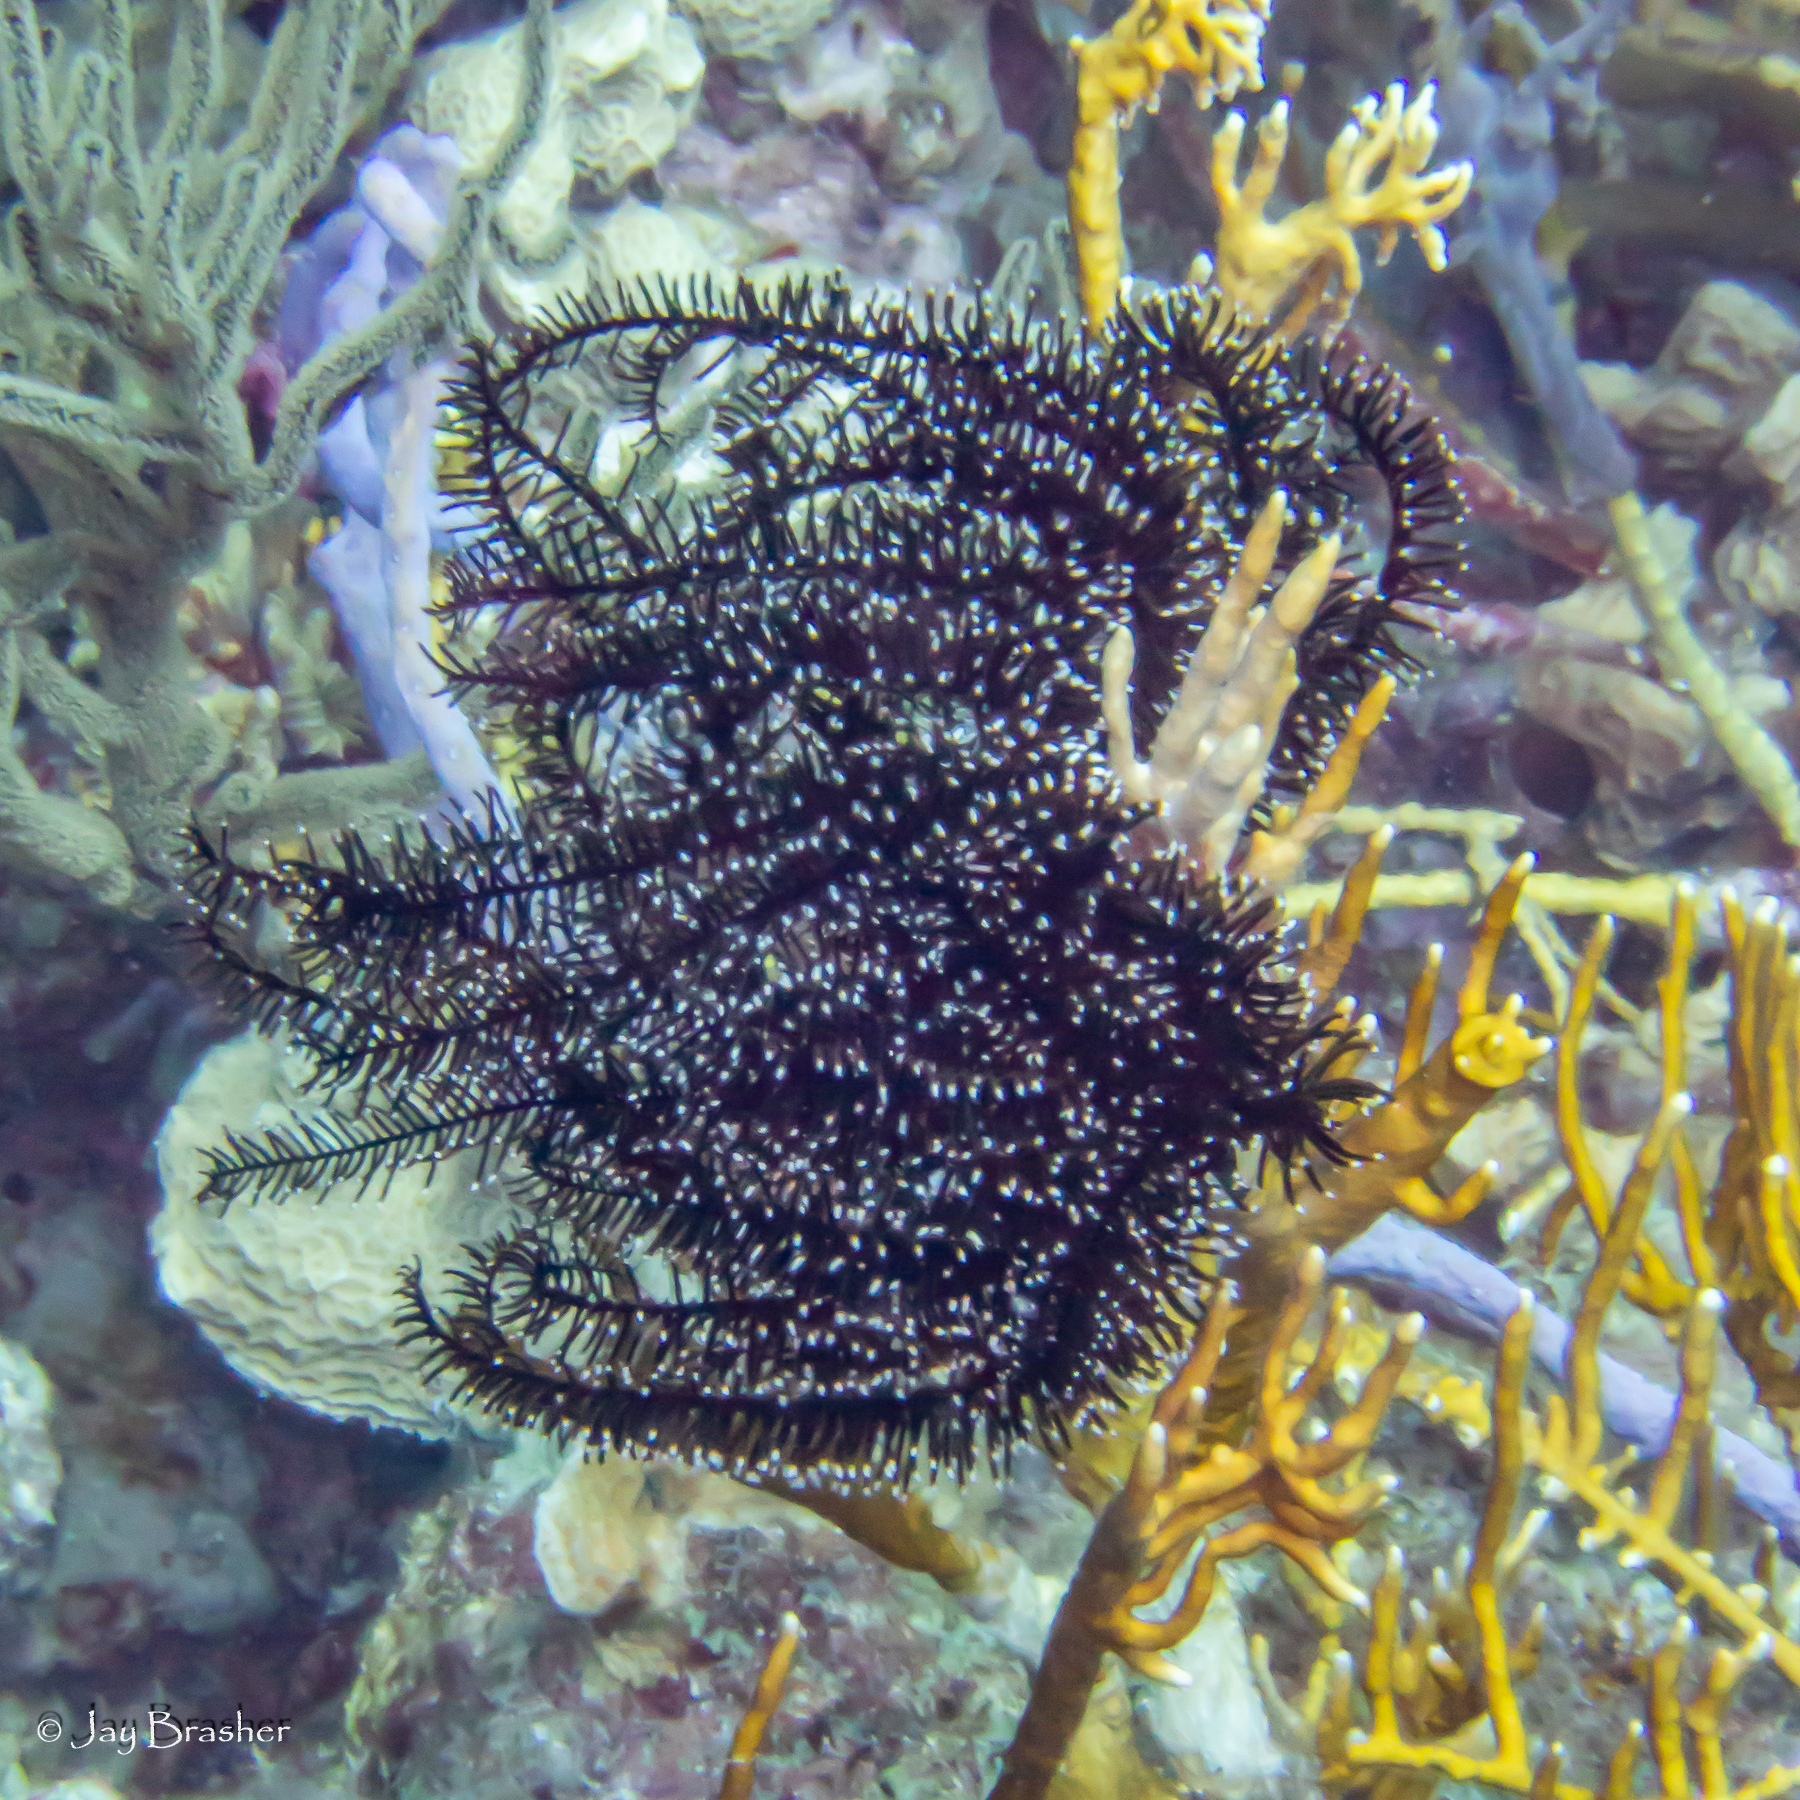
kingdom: Animalia
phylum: Echinodermata
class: Crinoidea
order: Comatulida
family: Comatulidae
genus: Nemaster
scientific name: Nemaster grandis
